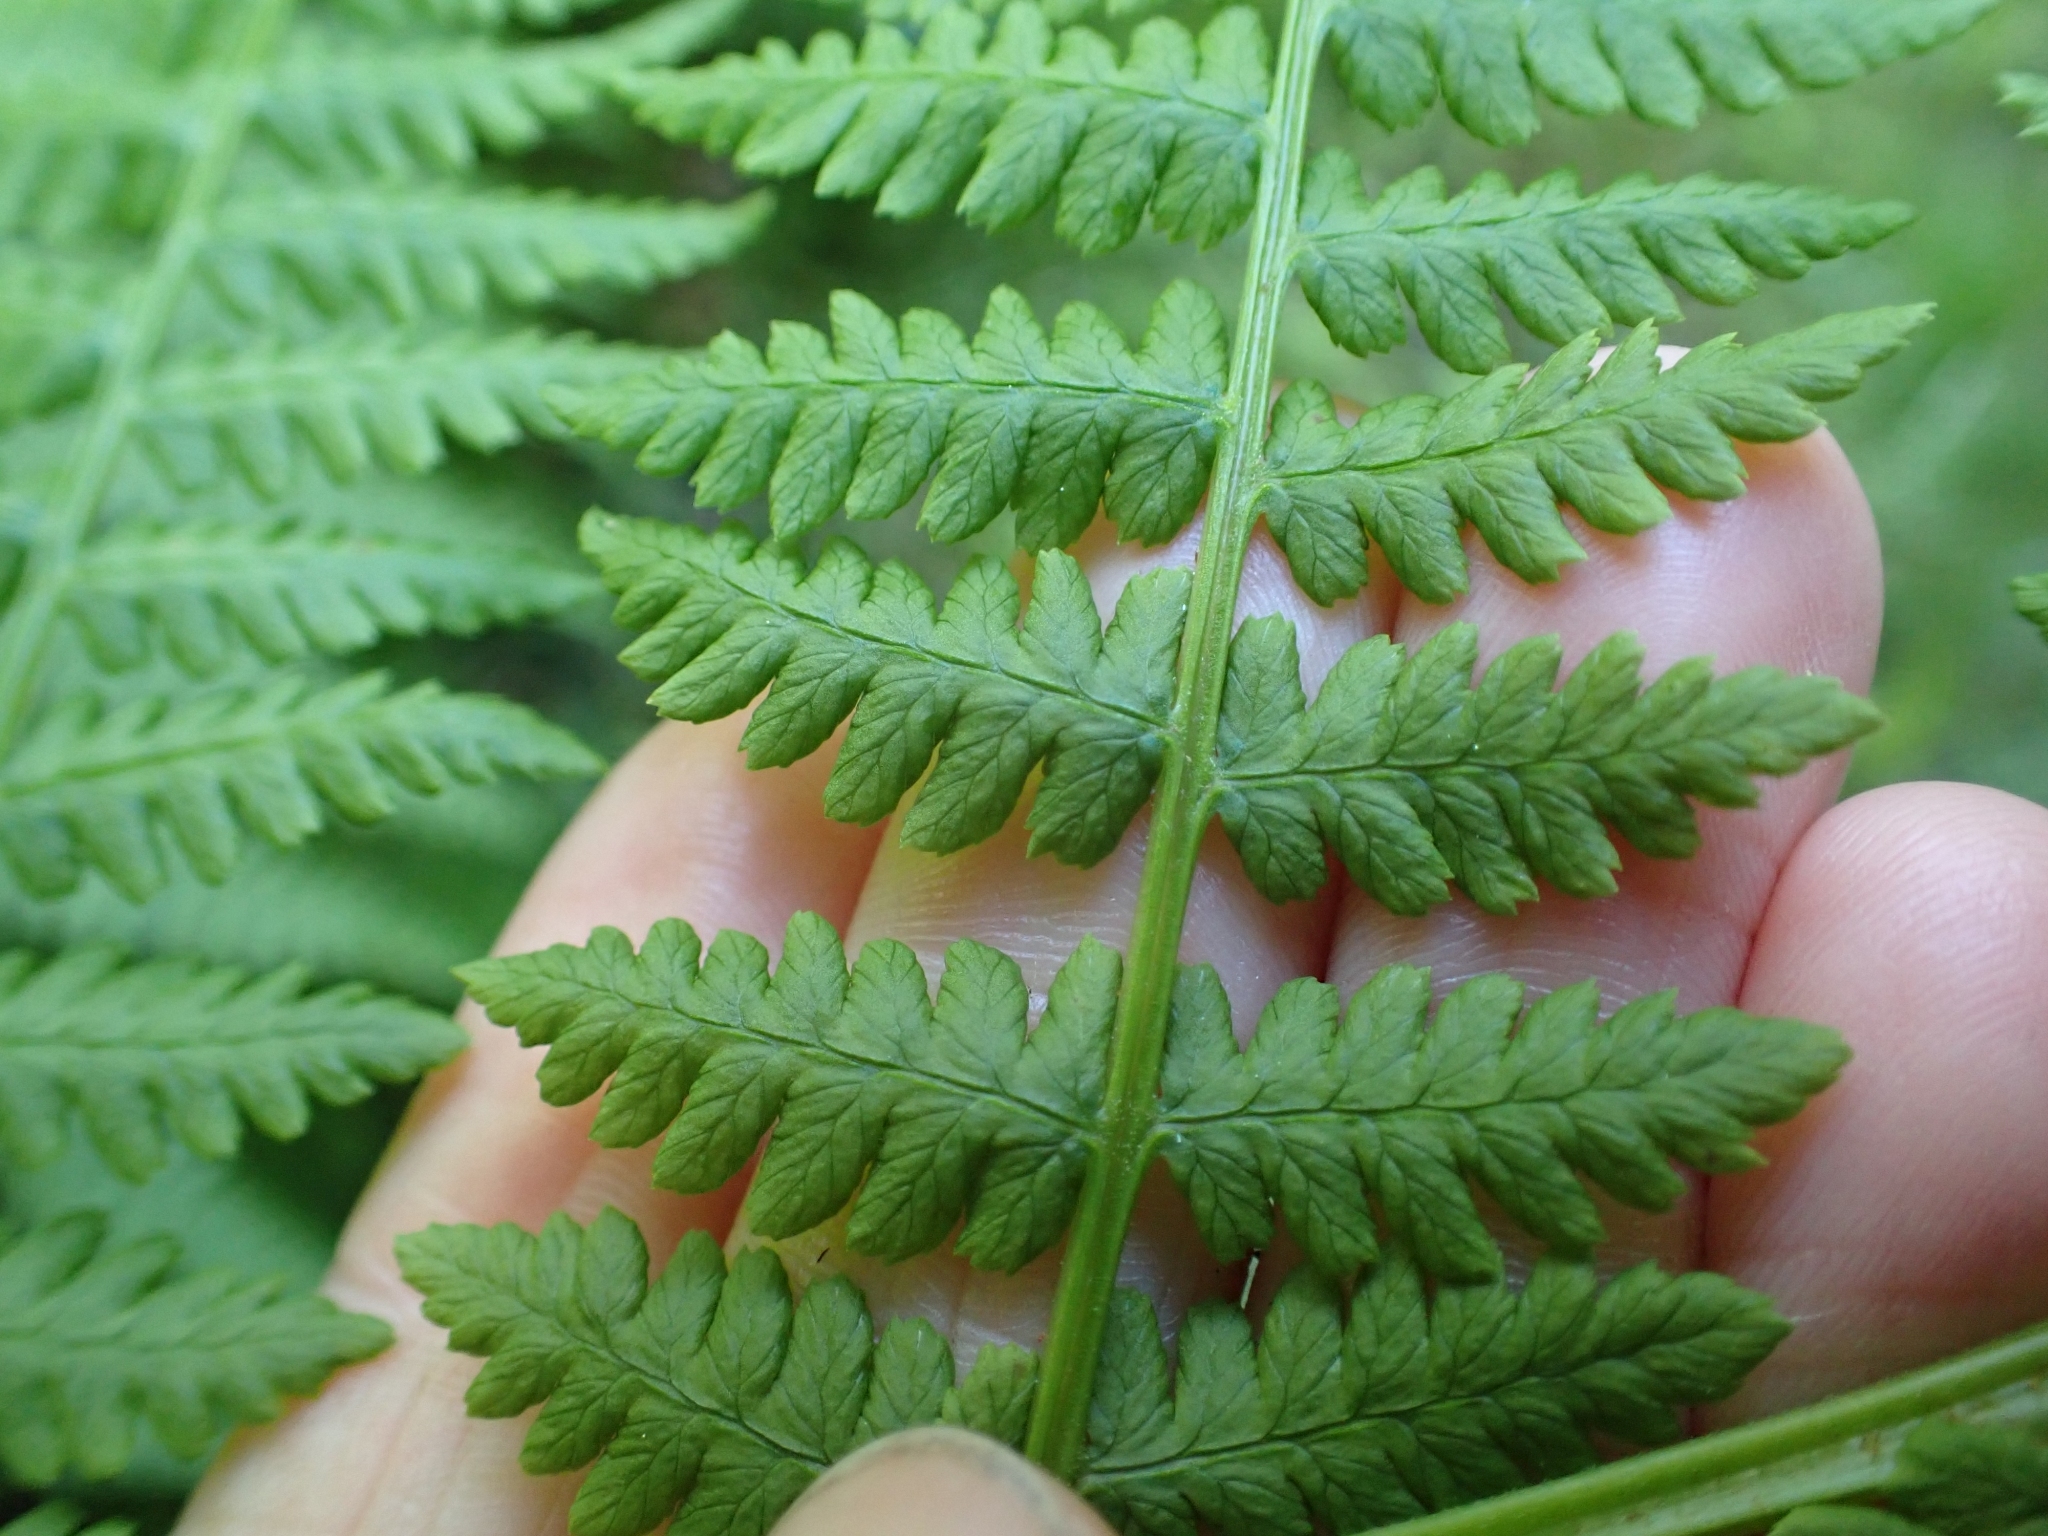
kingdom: Plantae
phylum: Tracheophyta
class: Polypodiopsida
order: Polypodiales
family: Athyriaceae
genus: Athyrium
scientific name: Athyrium cyclosorum
